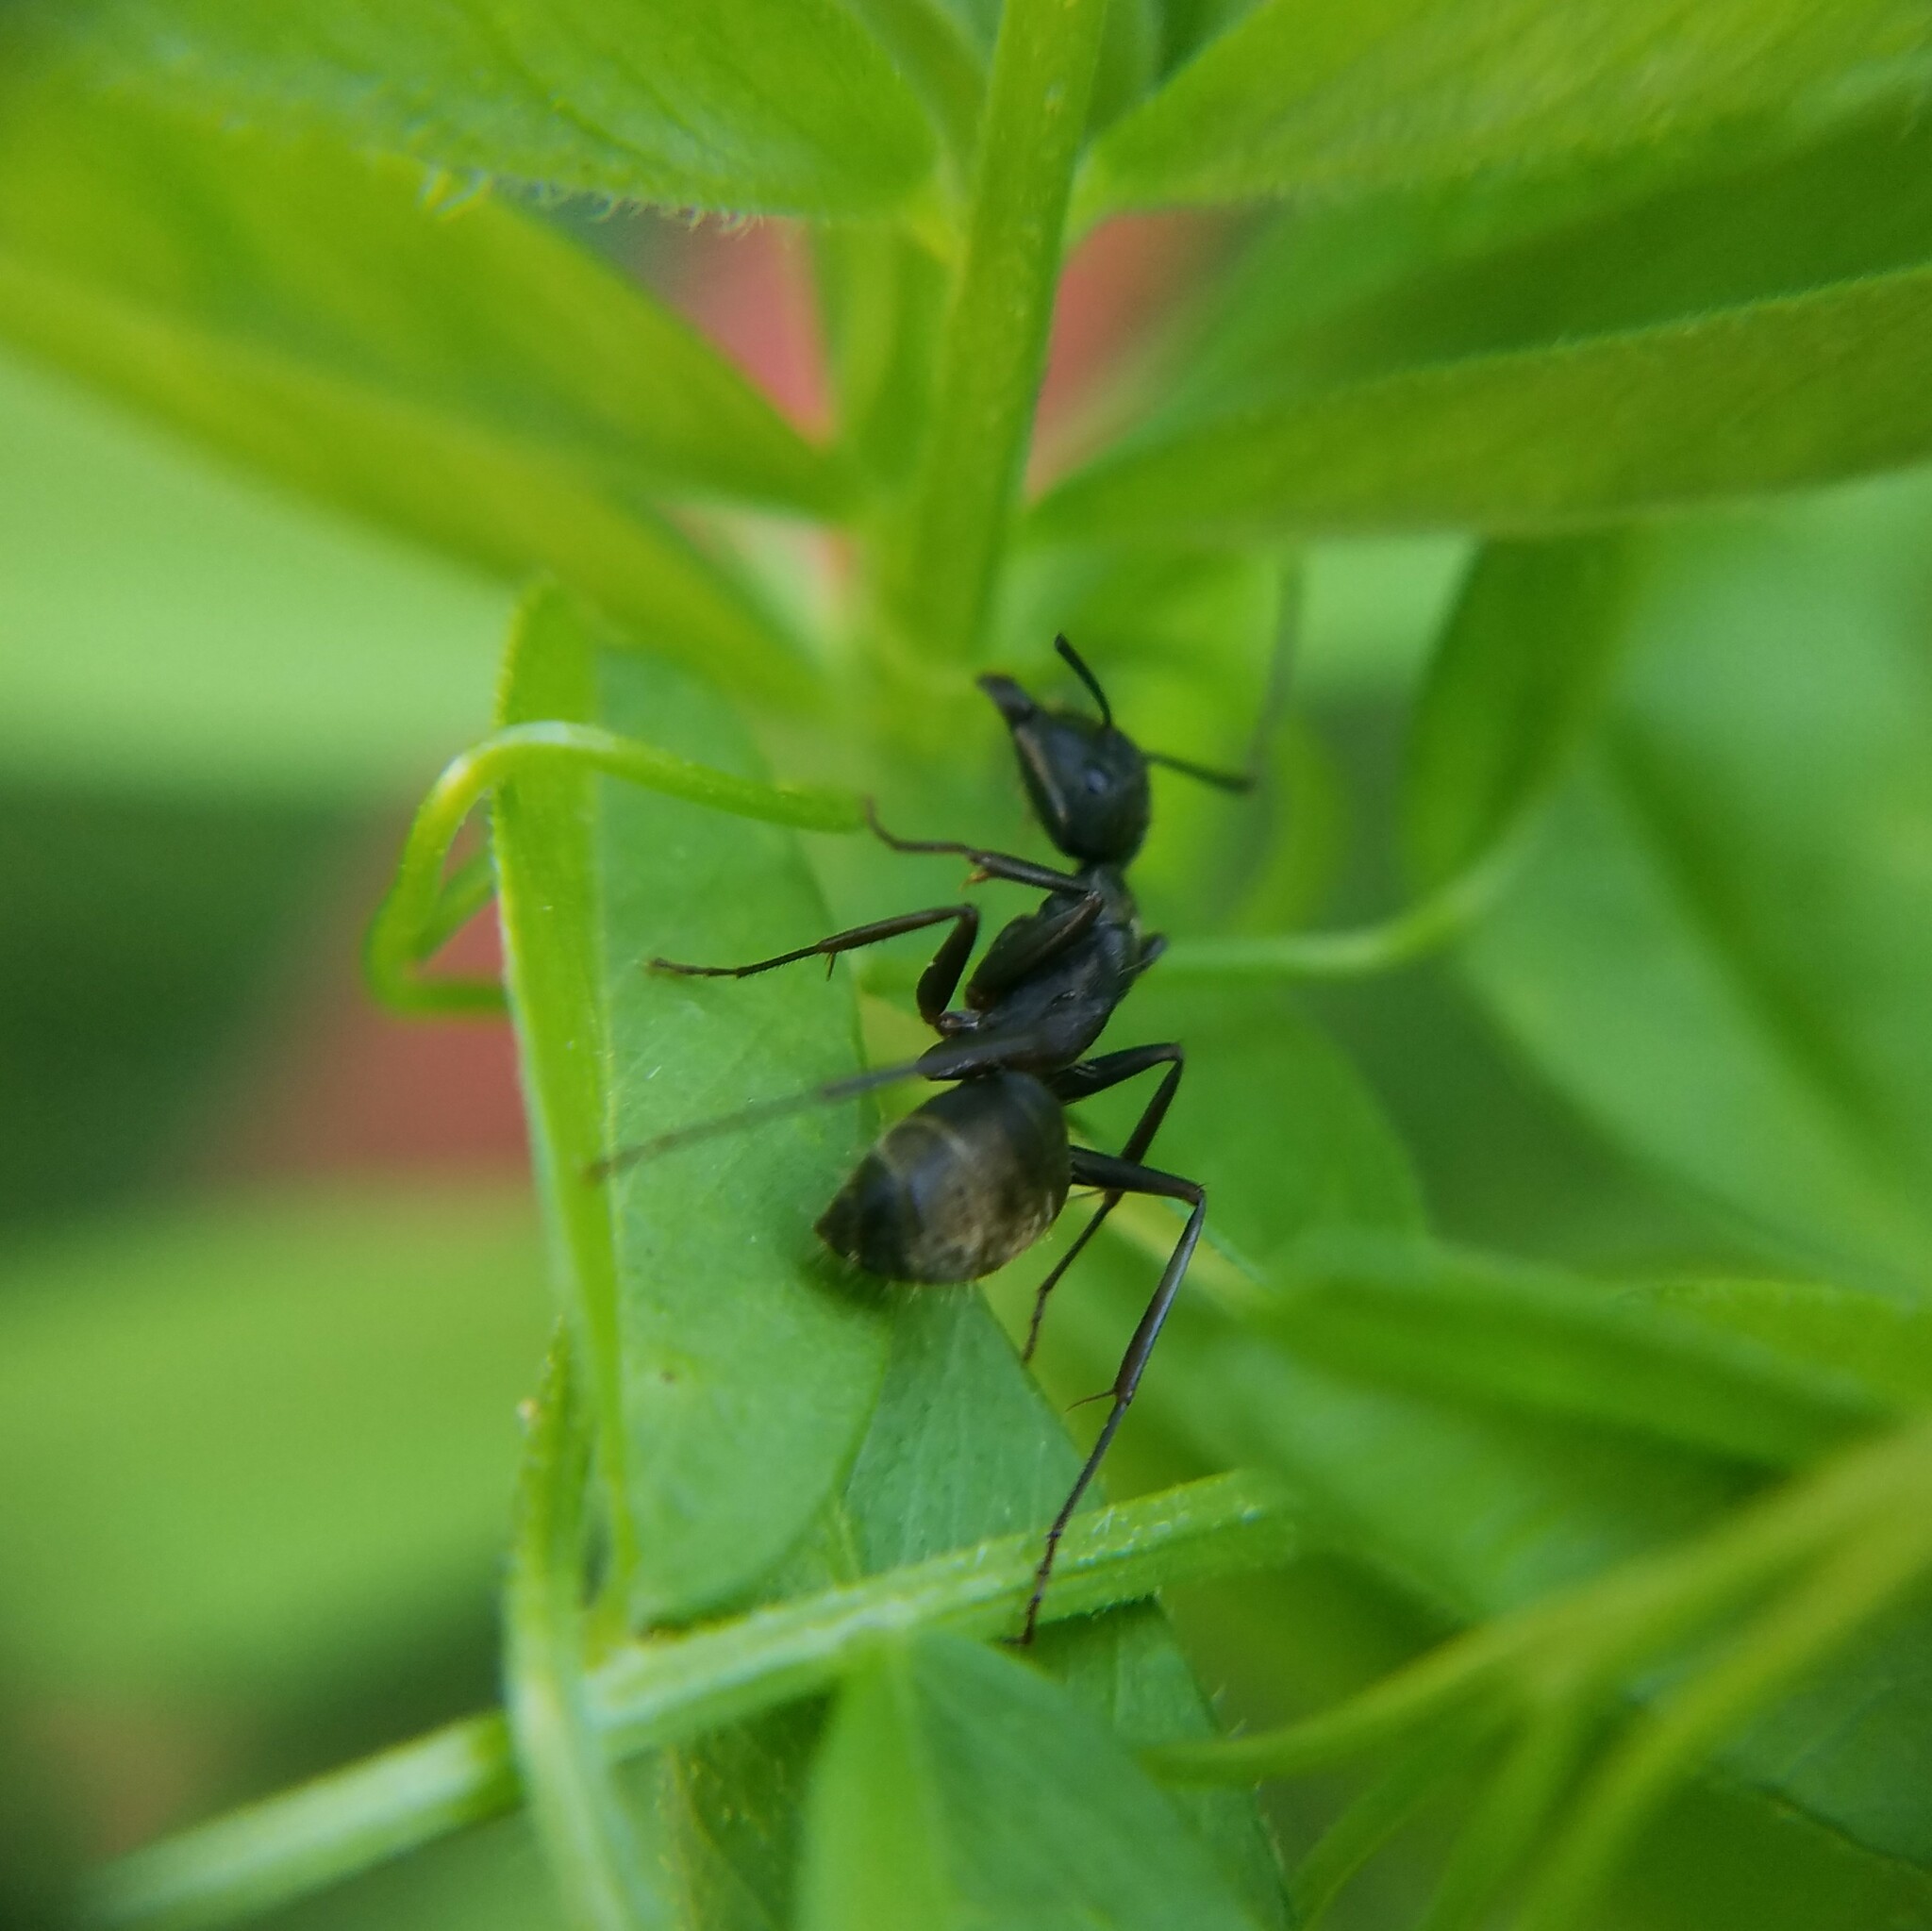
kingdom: Animalia
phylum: Arthropoda
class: Insecta
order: Hymenoptera
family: Formicidae
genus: Camponotus
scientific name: Camponotus chromaiodes
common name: Red carpenter ant
